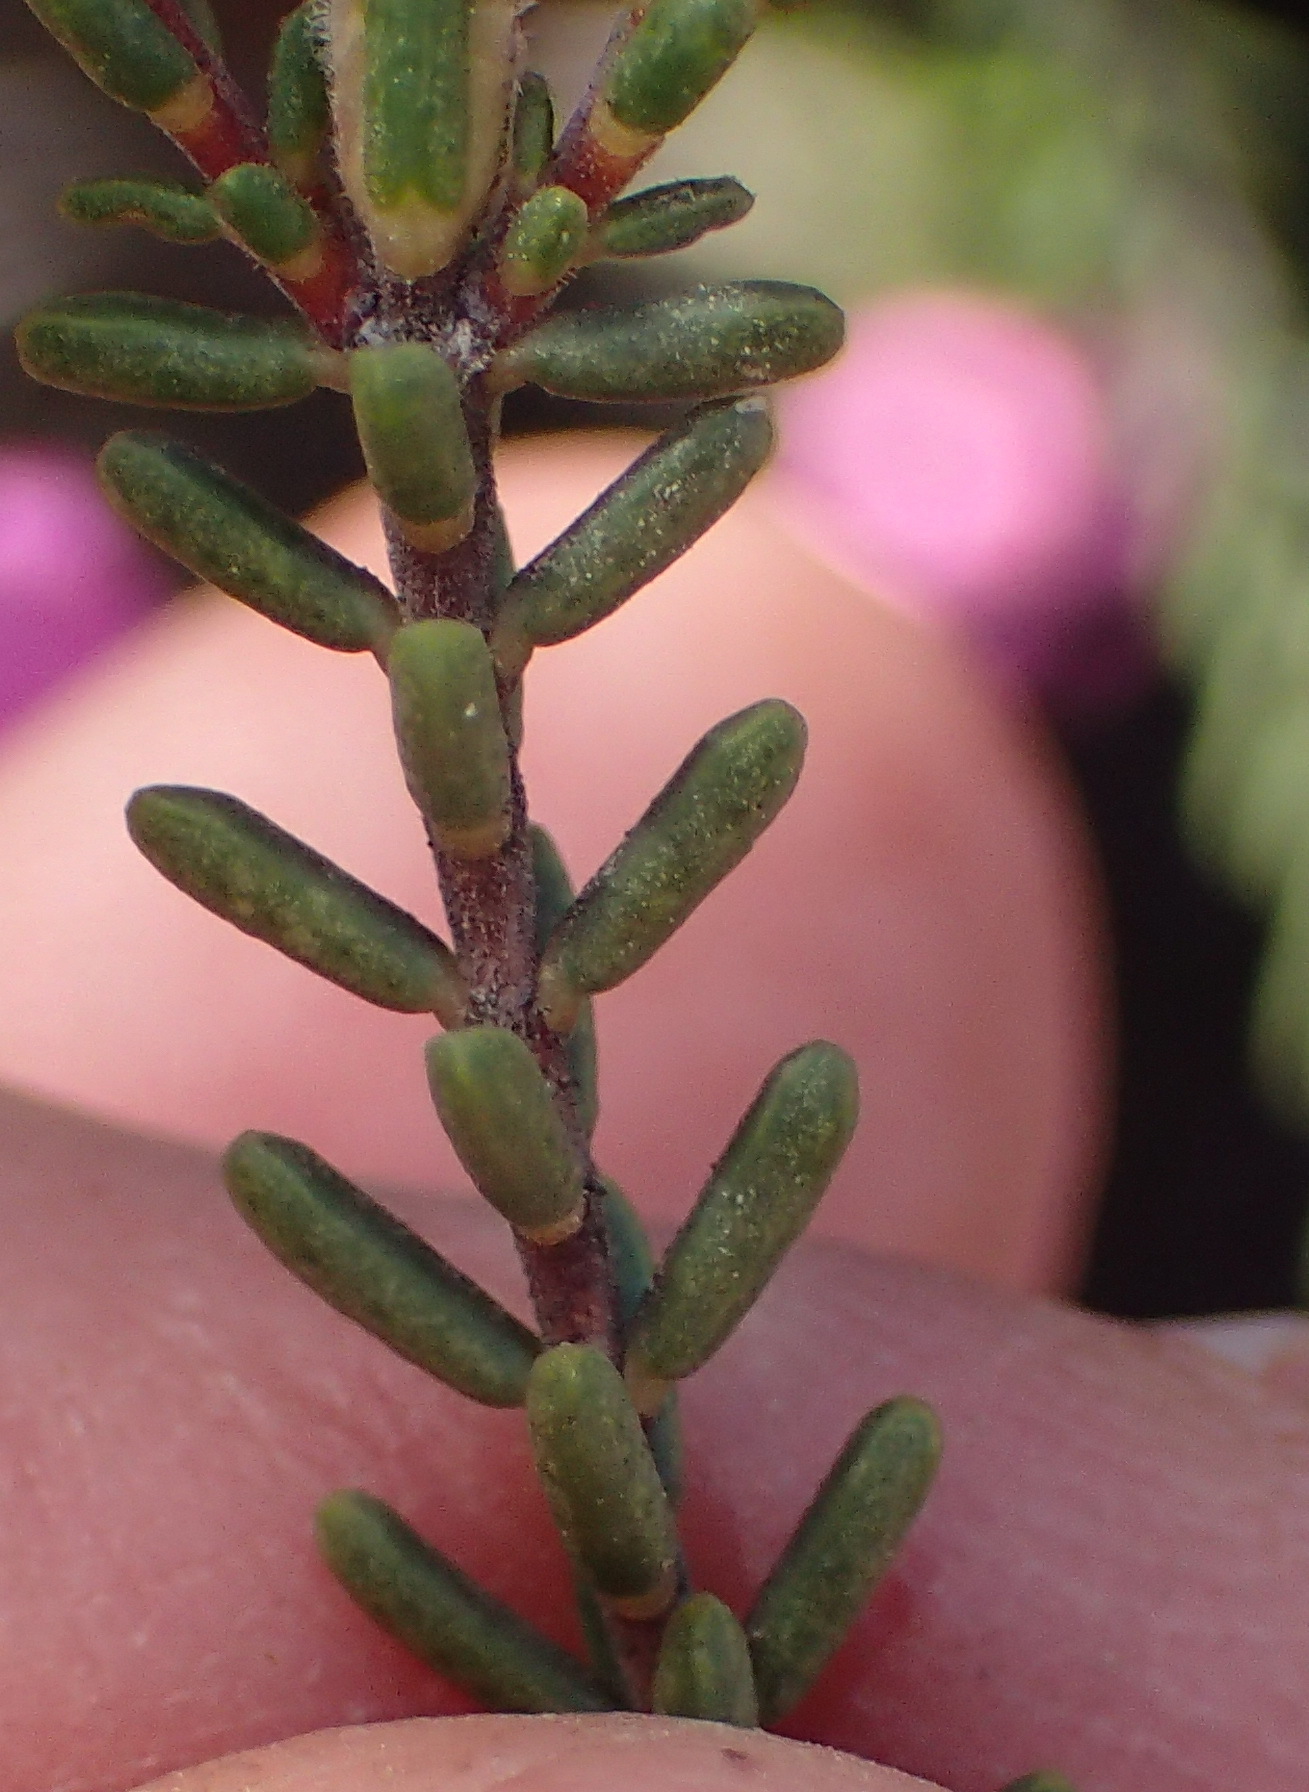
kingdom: Plantae
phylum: Tracheophyta
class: Magnoliopsida
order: Sapindales
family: Rutaceae
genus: Acmadenia
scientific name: Acmadenia sheilae
